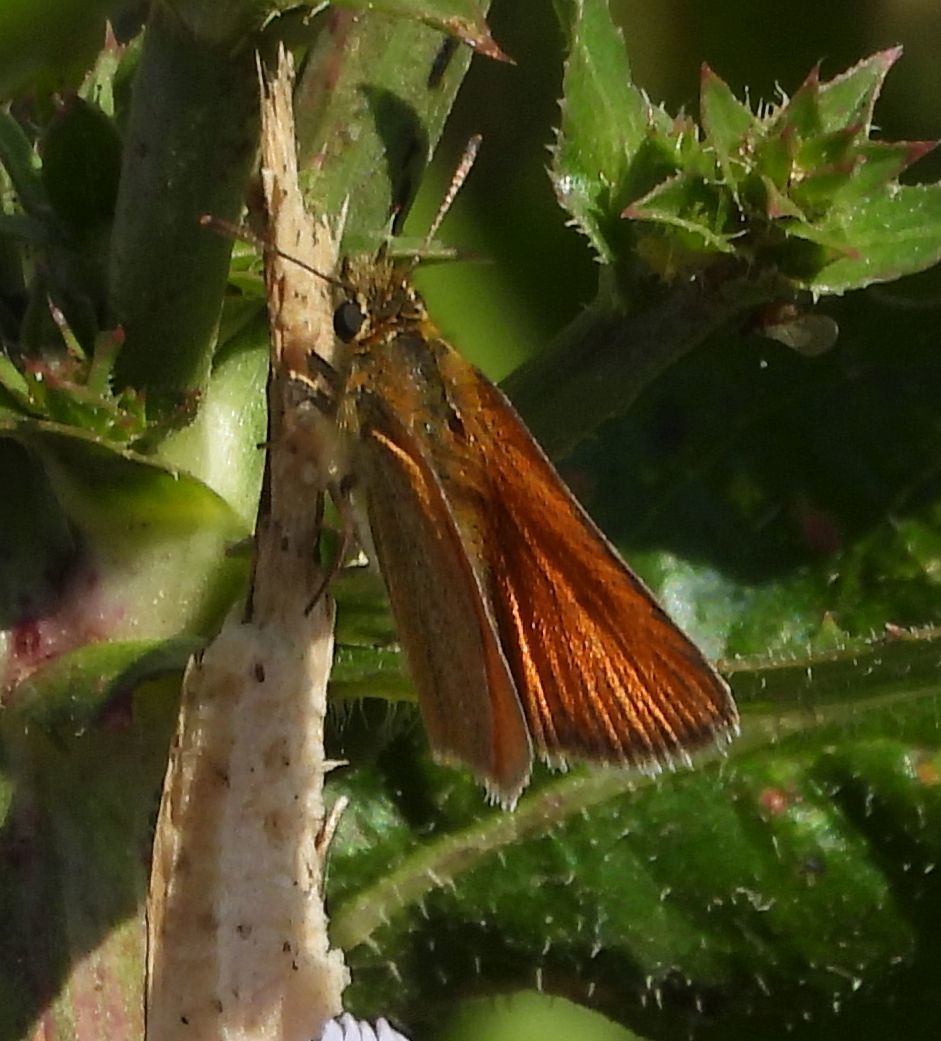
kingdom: Animalia
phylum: Arthropoda
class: Insecta
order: Lepidoptera
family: Hesperiidae
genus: Thymelicus
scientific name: Thymelicus lineola
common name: Essex skipper
